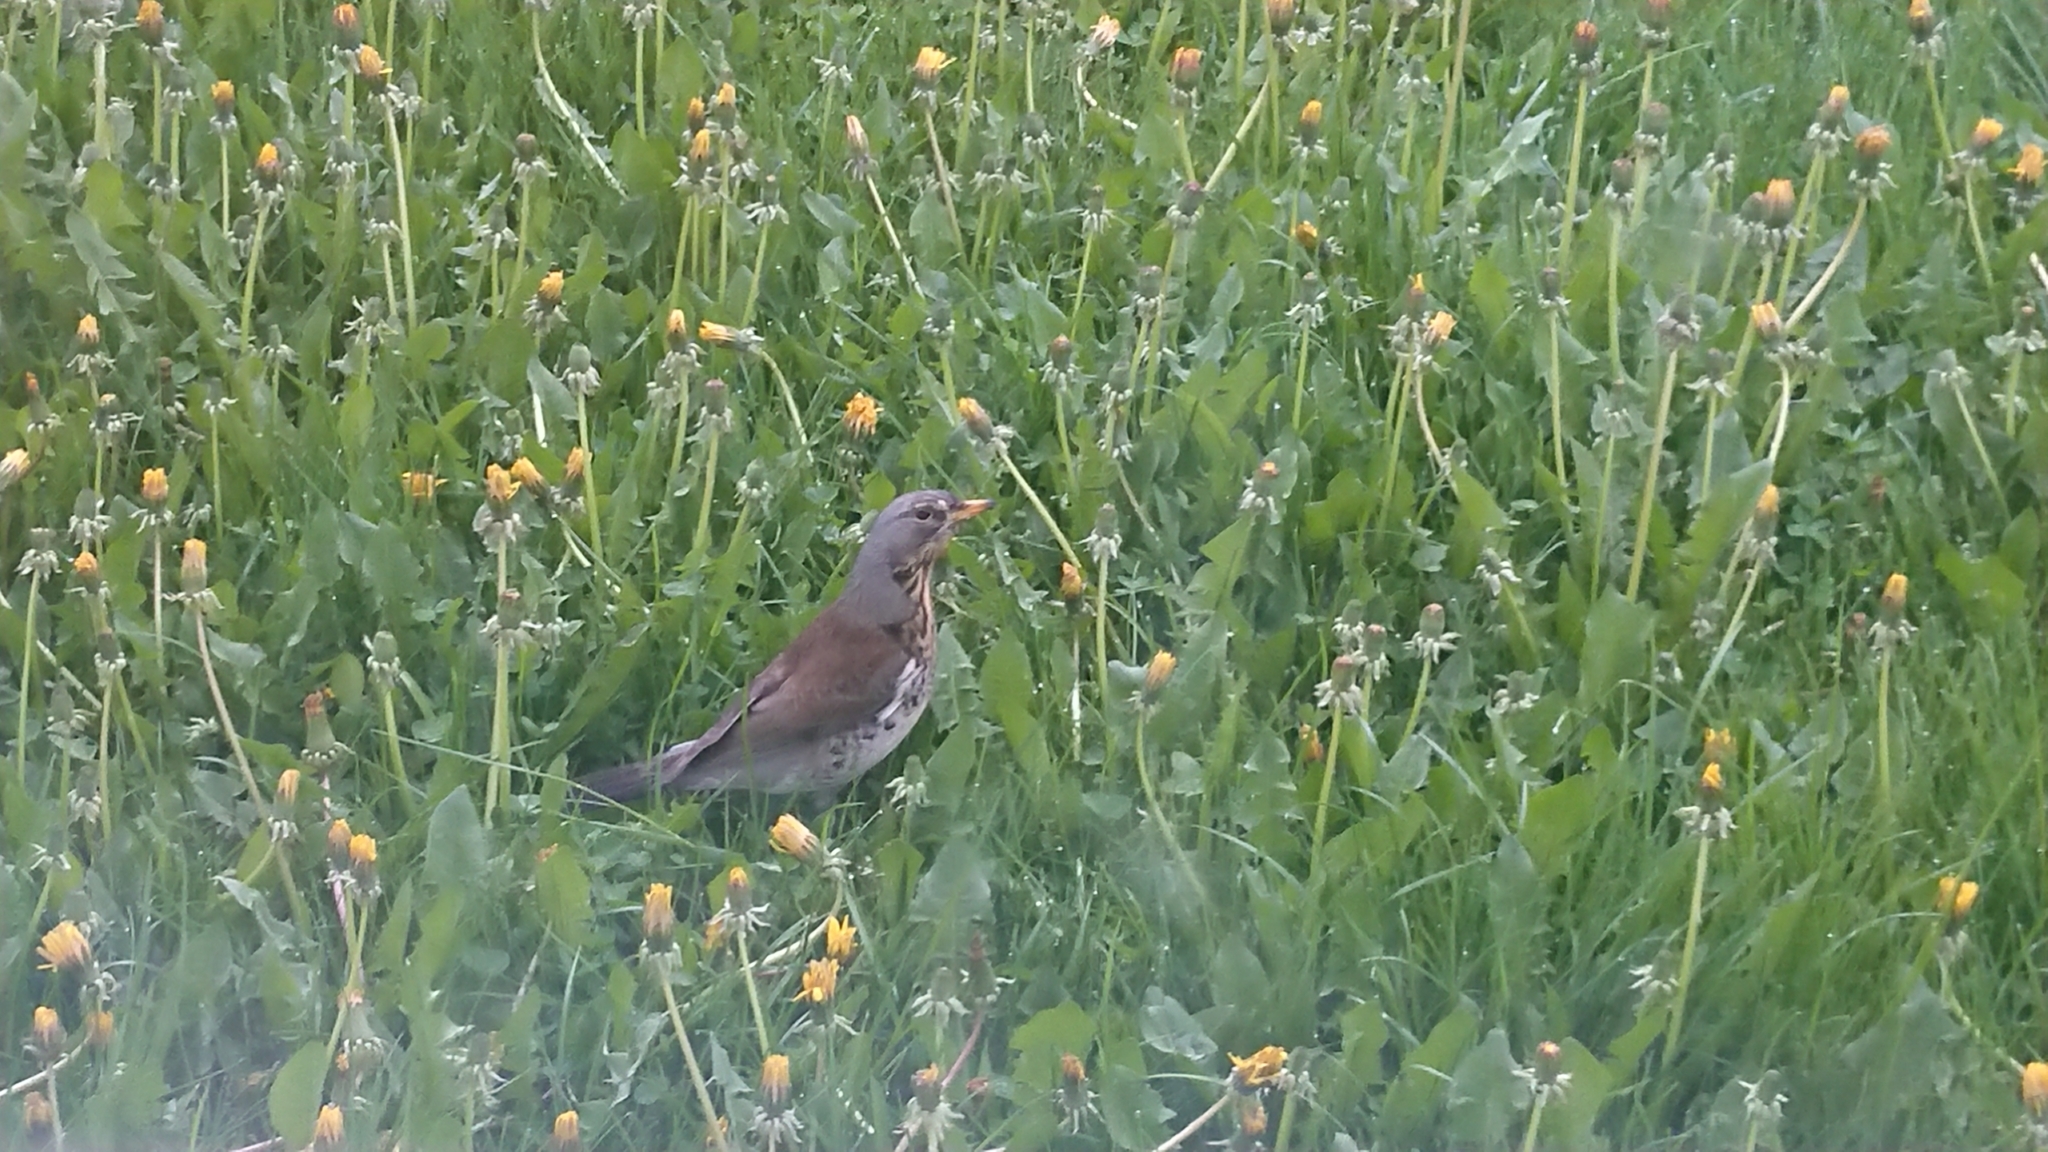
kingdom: Animalia
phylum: Chordata
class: Aves
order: Passeriformes
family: Turdidae
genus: Turdus
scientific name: Turdus pilaris
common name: Fieldfare
